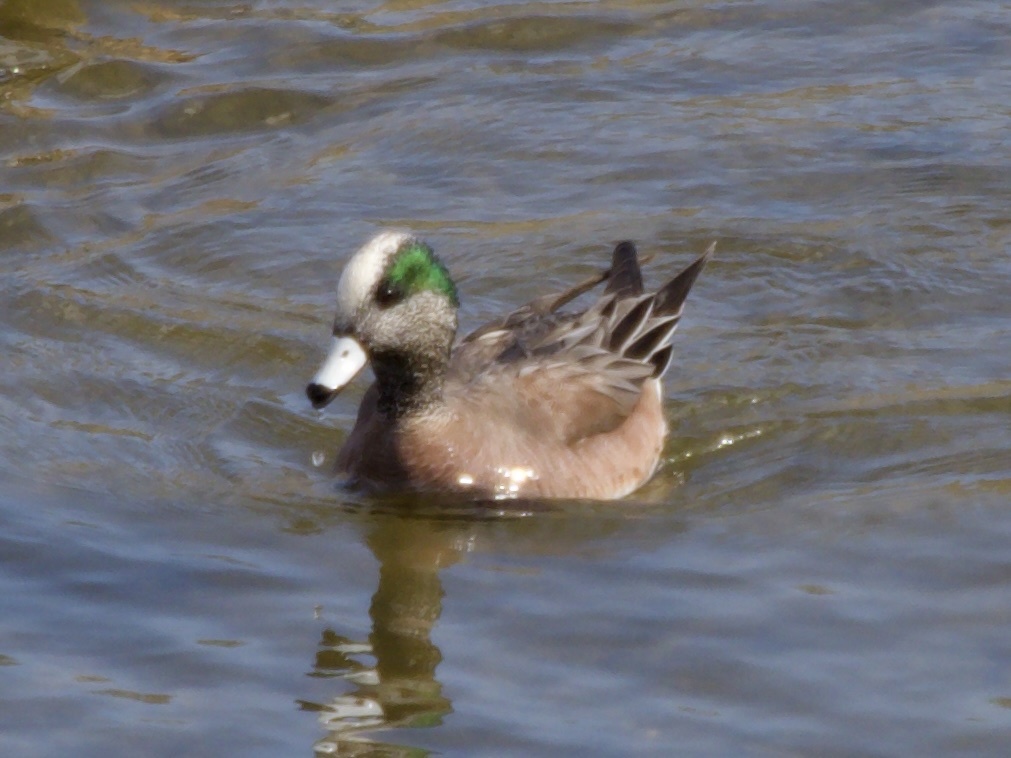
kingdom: Animalia
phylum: Chordata
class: Aves
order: Anseriformes
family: Anatidae
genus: Mareca
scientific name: Mareca americana
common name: American wigeon
